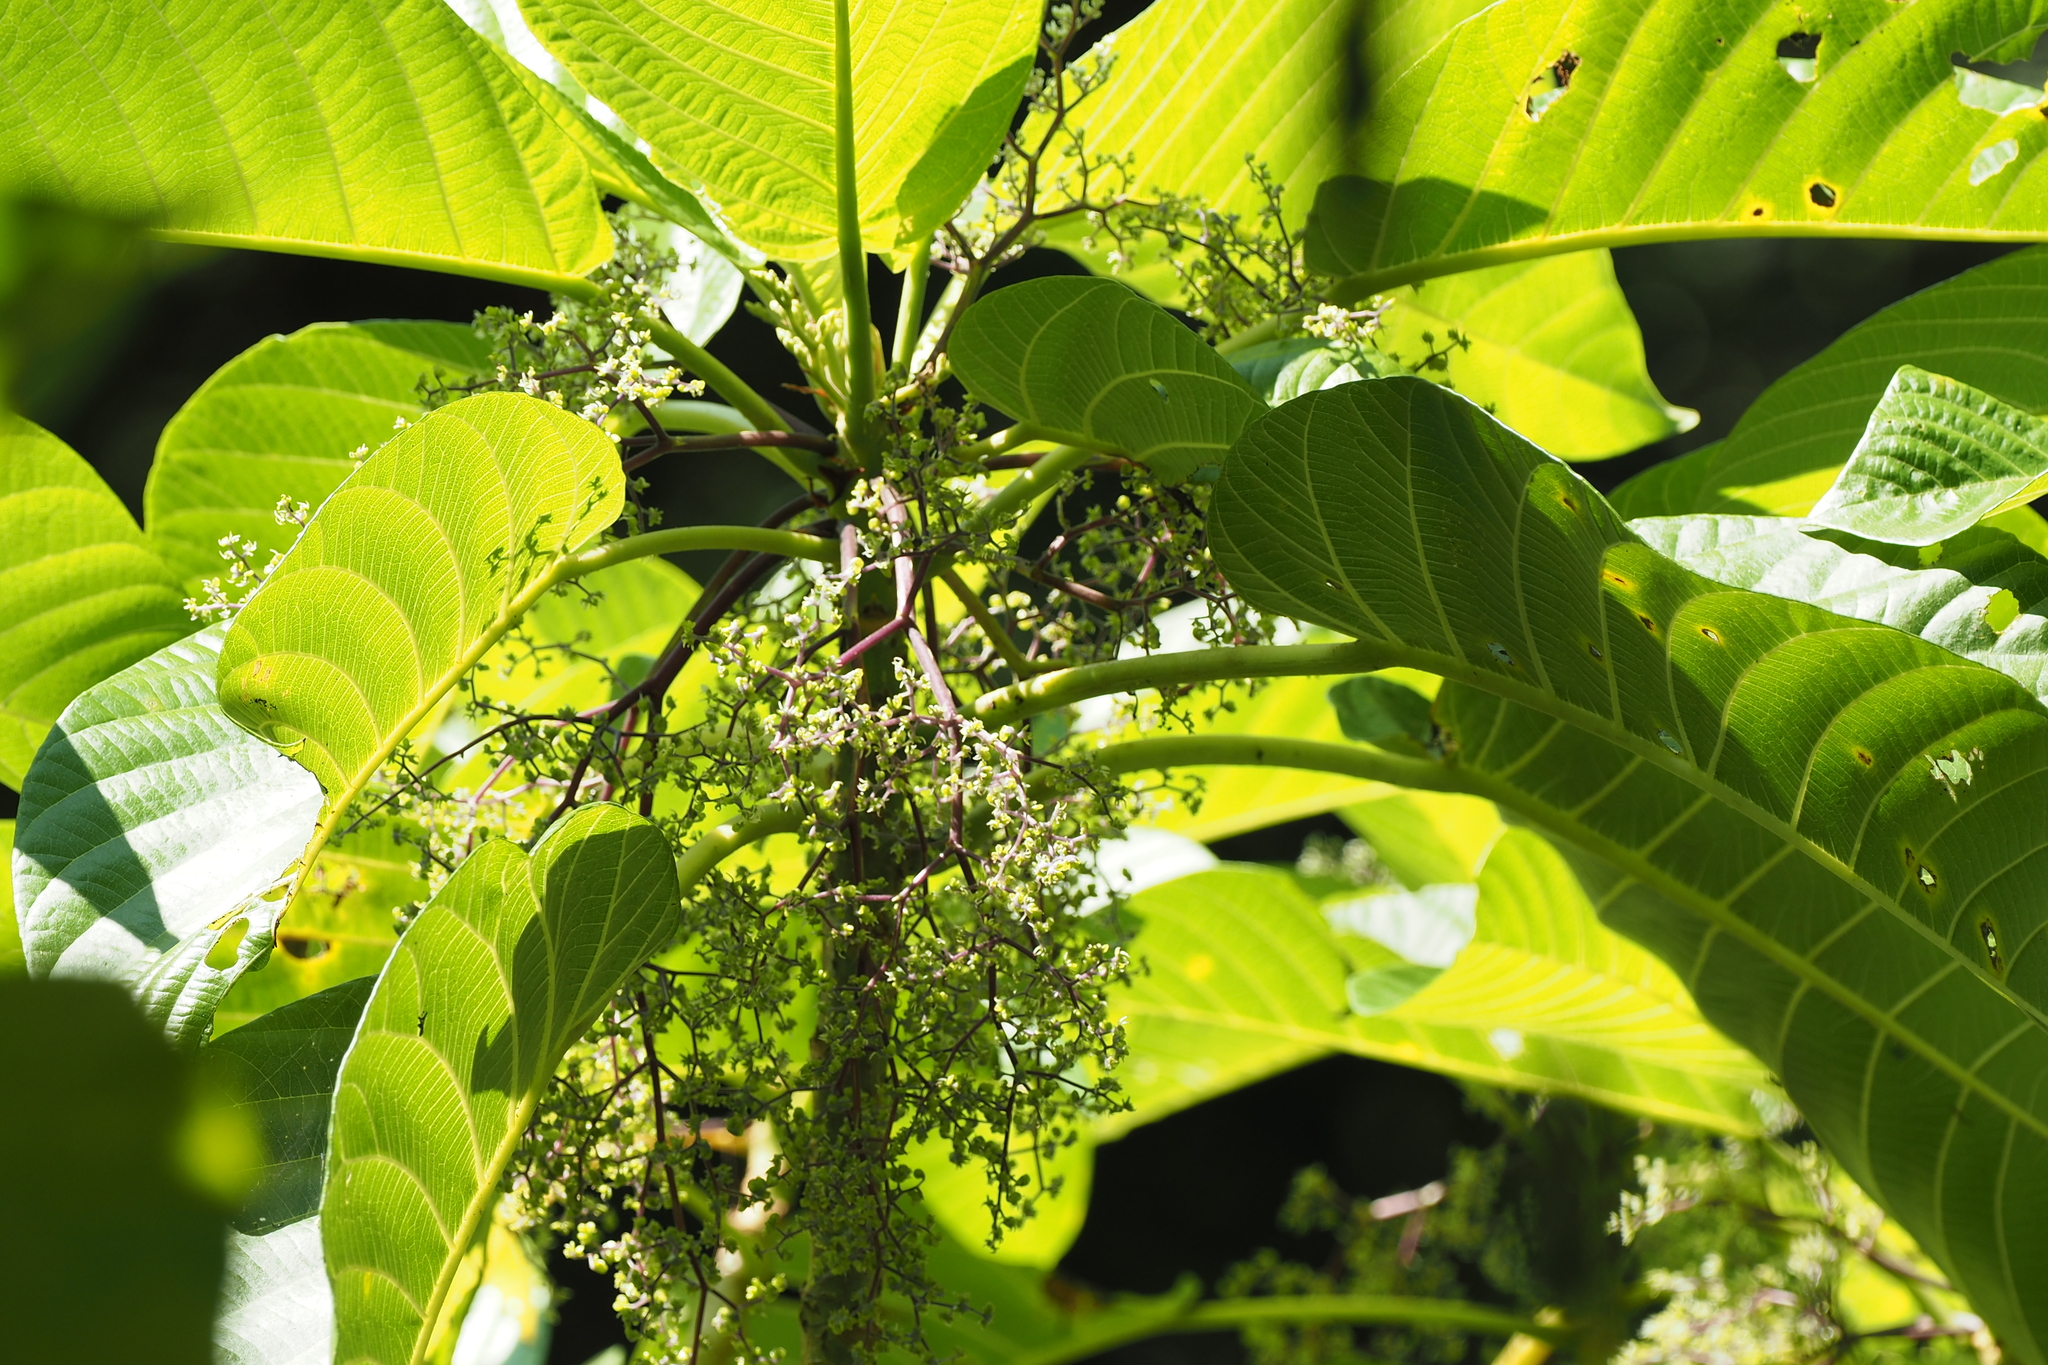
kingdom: Plantae
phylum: Tracheophyta
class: Magnoliopsida
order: Rosales
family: Urticaceae
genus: Dendrocnide
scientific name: Dendrocnide meyeniana
